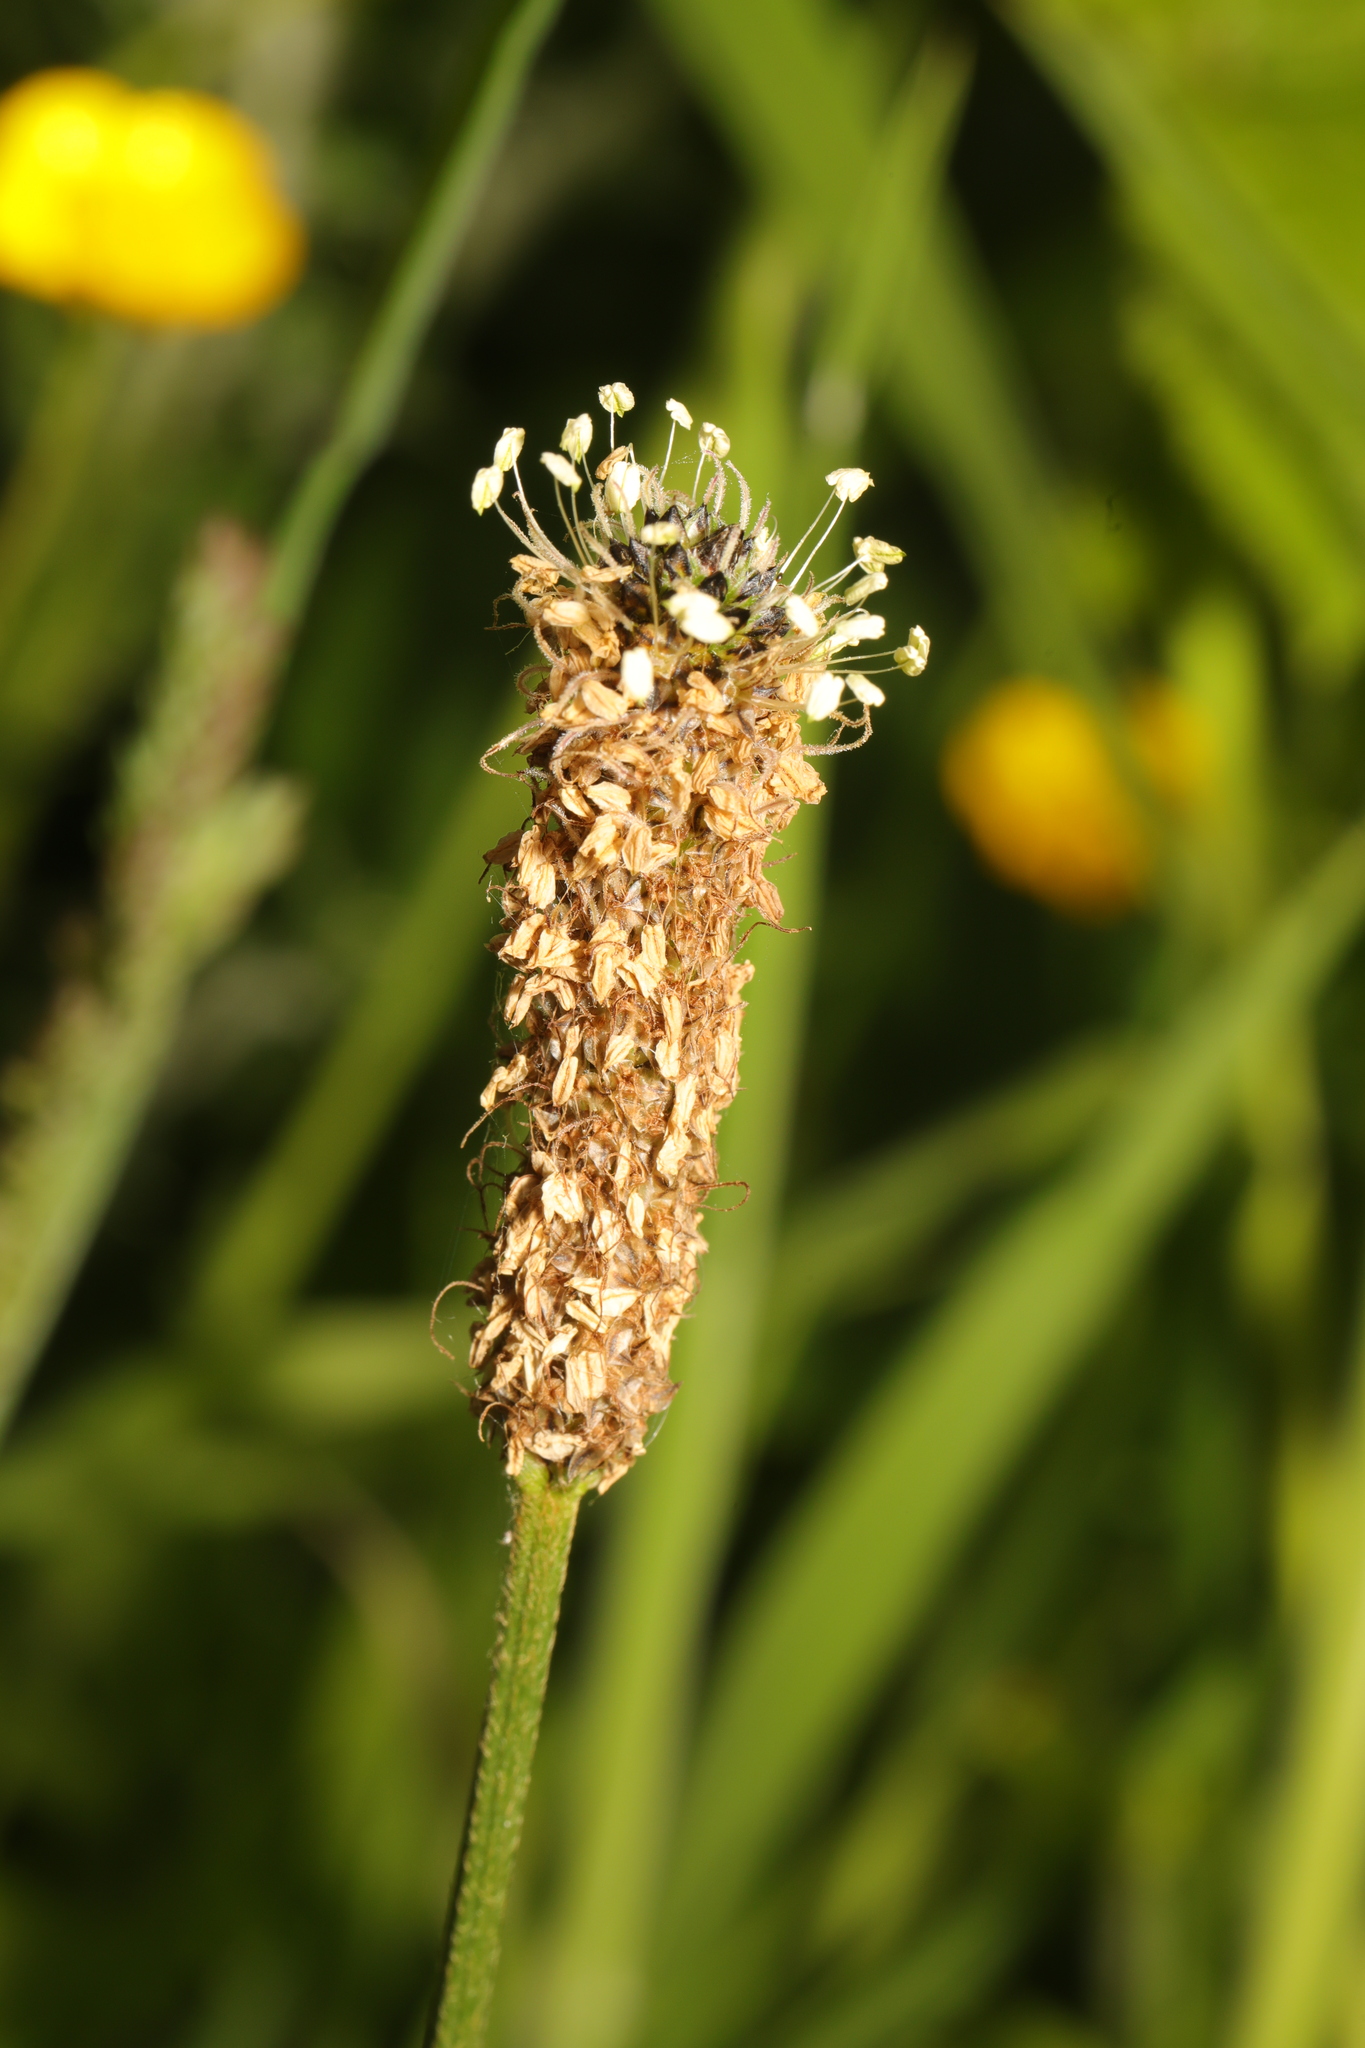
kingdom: Plantae
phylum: Tracheophyta
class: Magnoliopsida
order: Lamiales
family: Plantaginaceae
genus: Plantago
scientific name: Plantago lanceolata
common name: Ribwort plantain
